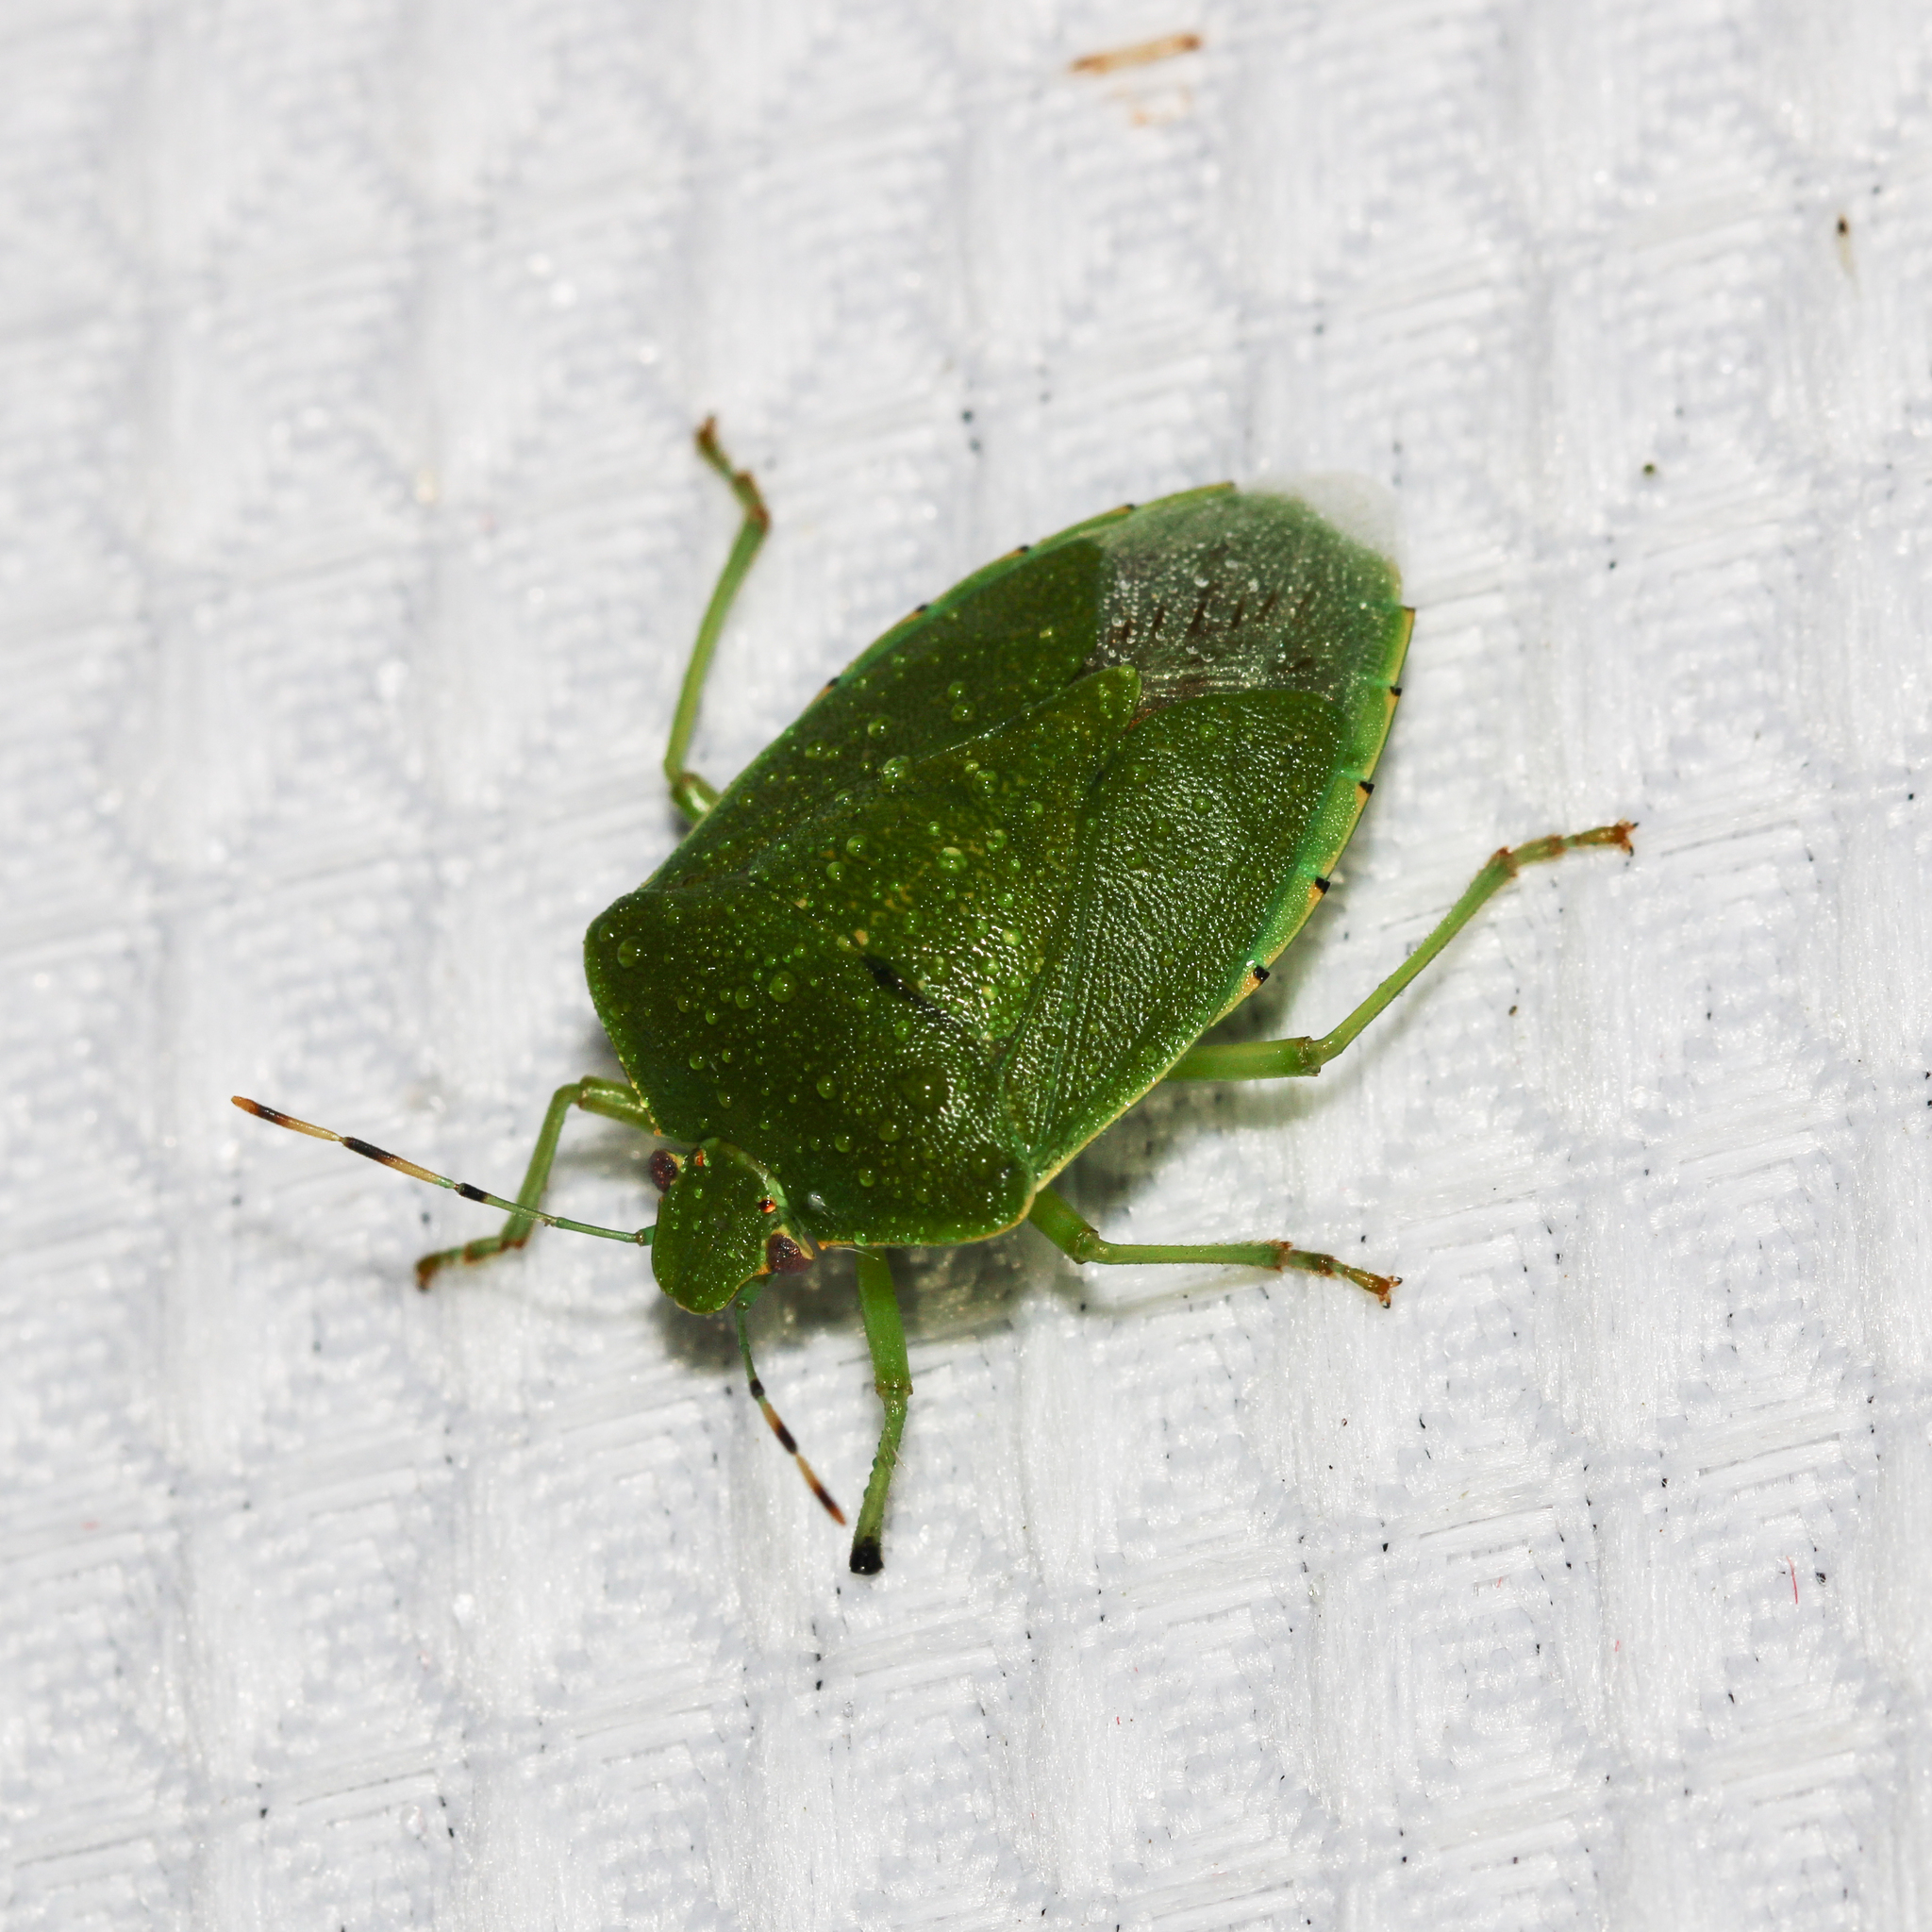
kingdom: Animalia
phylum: Arthropoda
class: Insecta
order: Hemiptera
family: Pentatomidae
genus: Chinavia
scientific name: Chinavia hilaris
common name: Green stink bug
